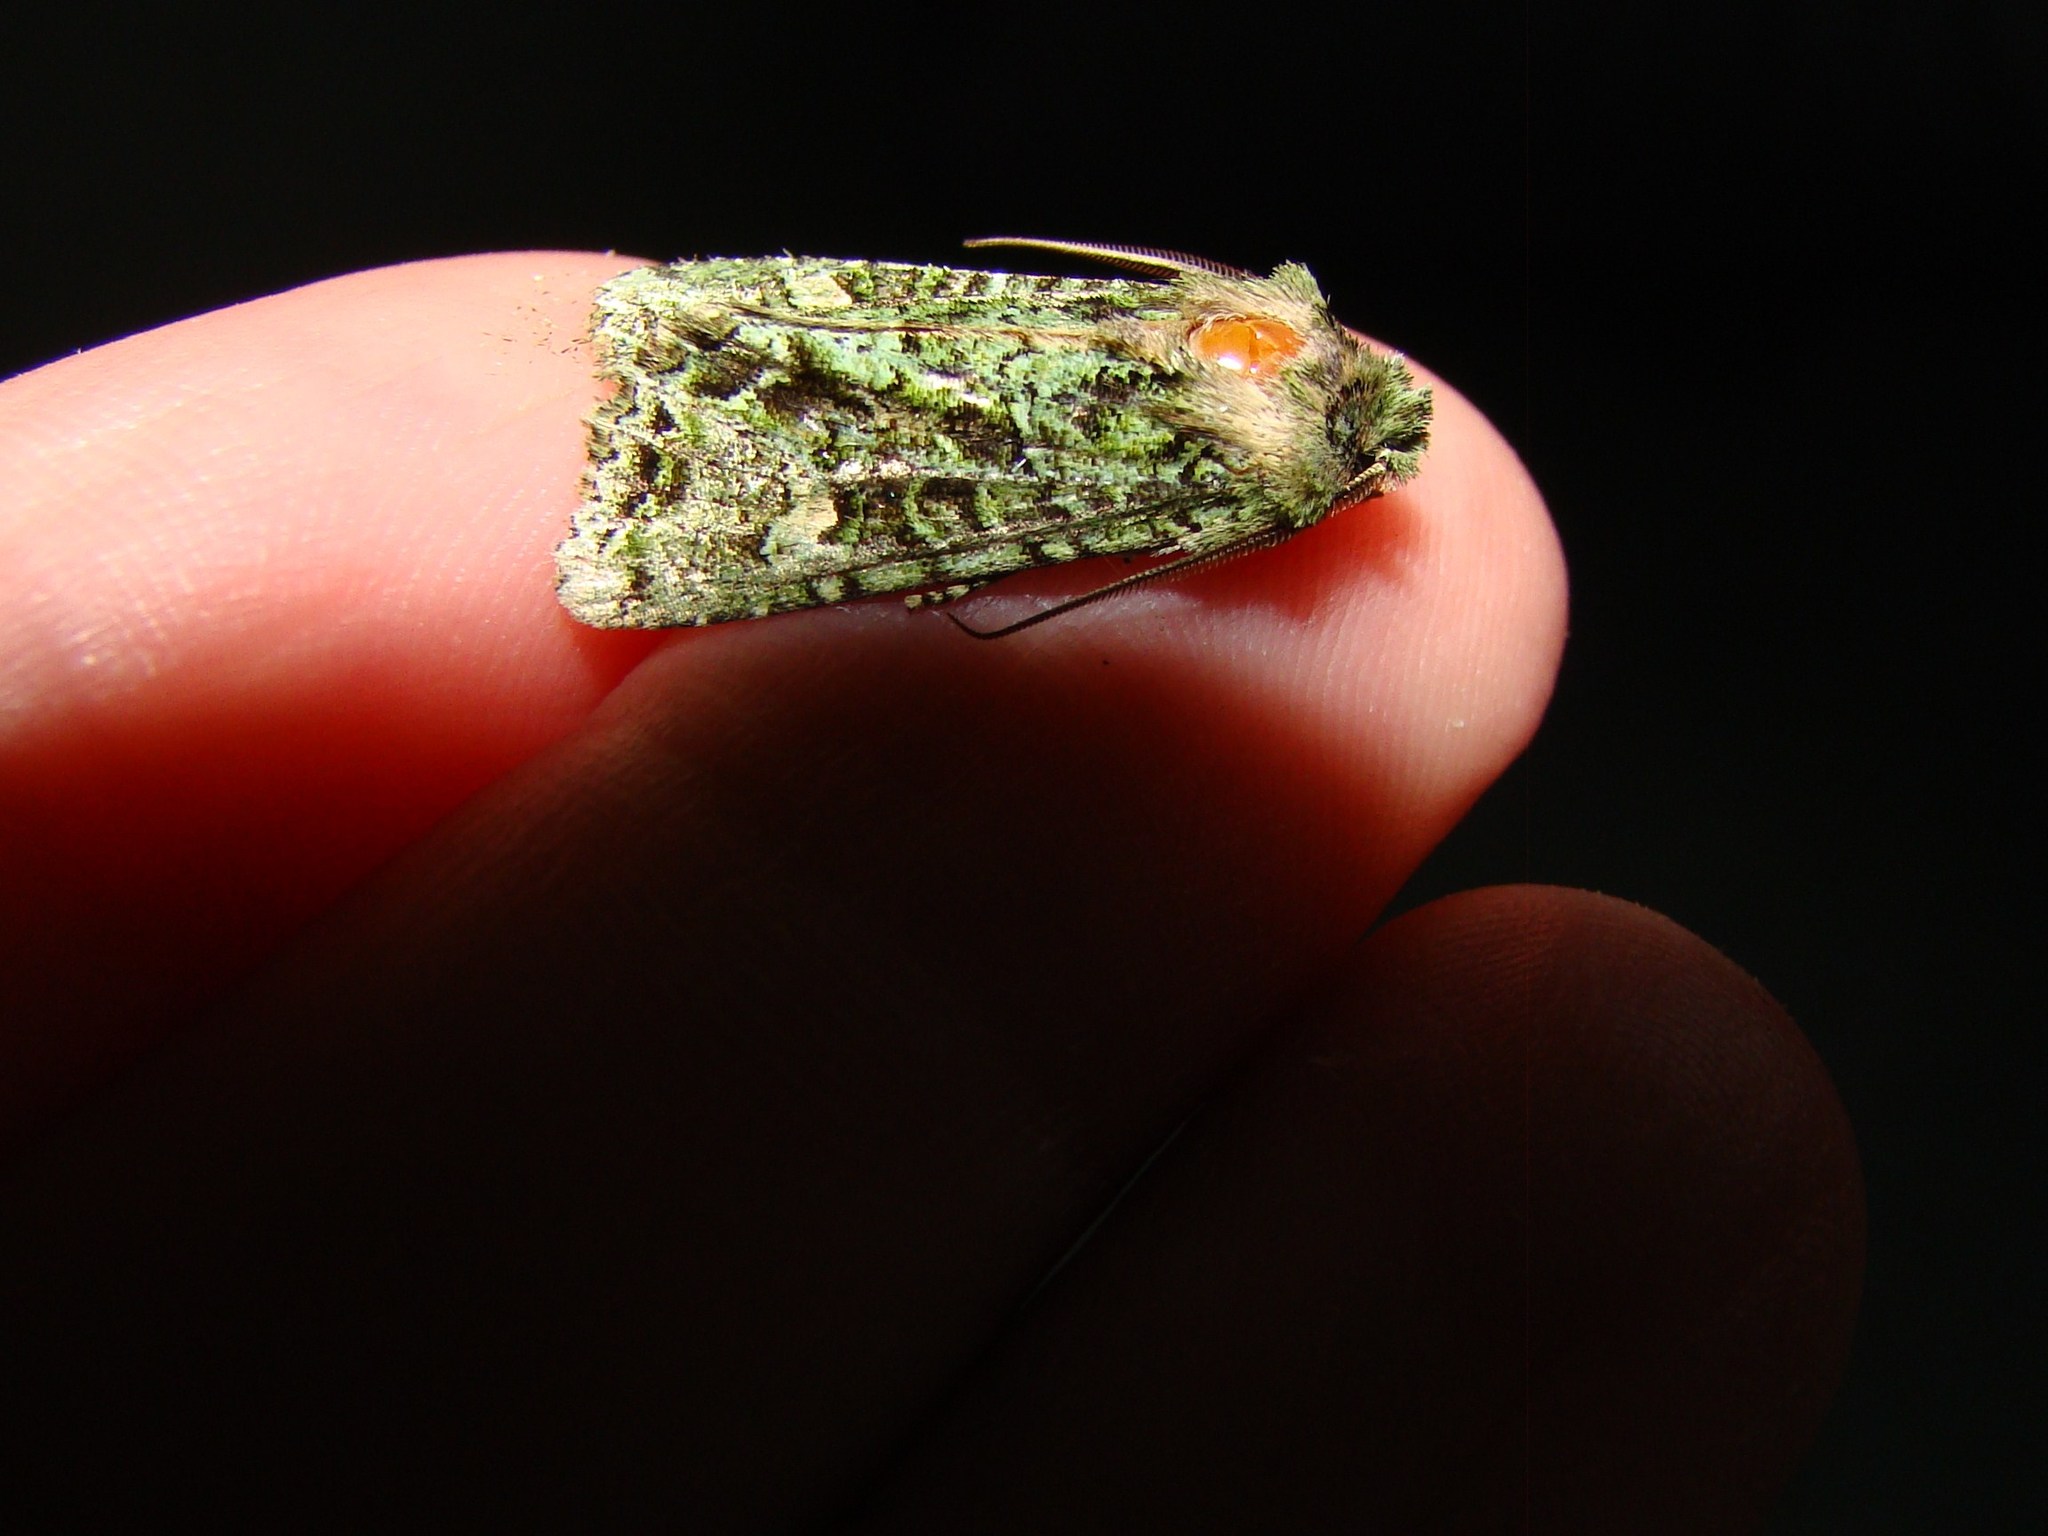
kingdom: Animalia
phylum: Arthropoda
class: Insecta
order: Lepidoptera
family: Noctuidae
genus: Ichneutica
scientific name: Ichneutica
